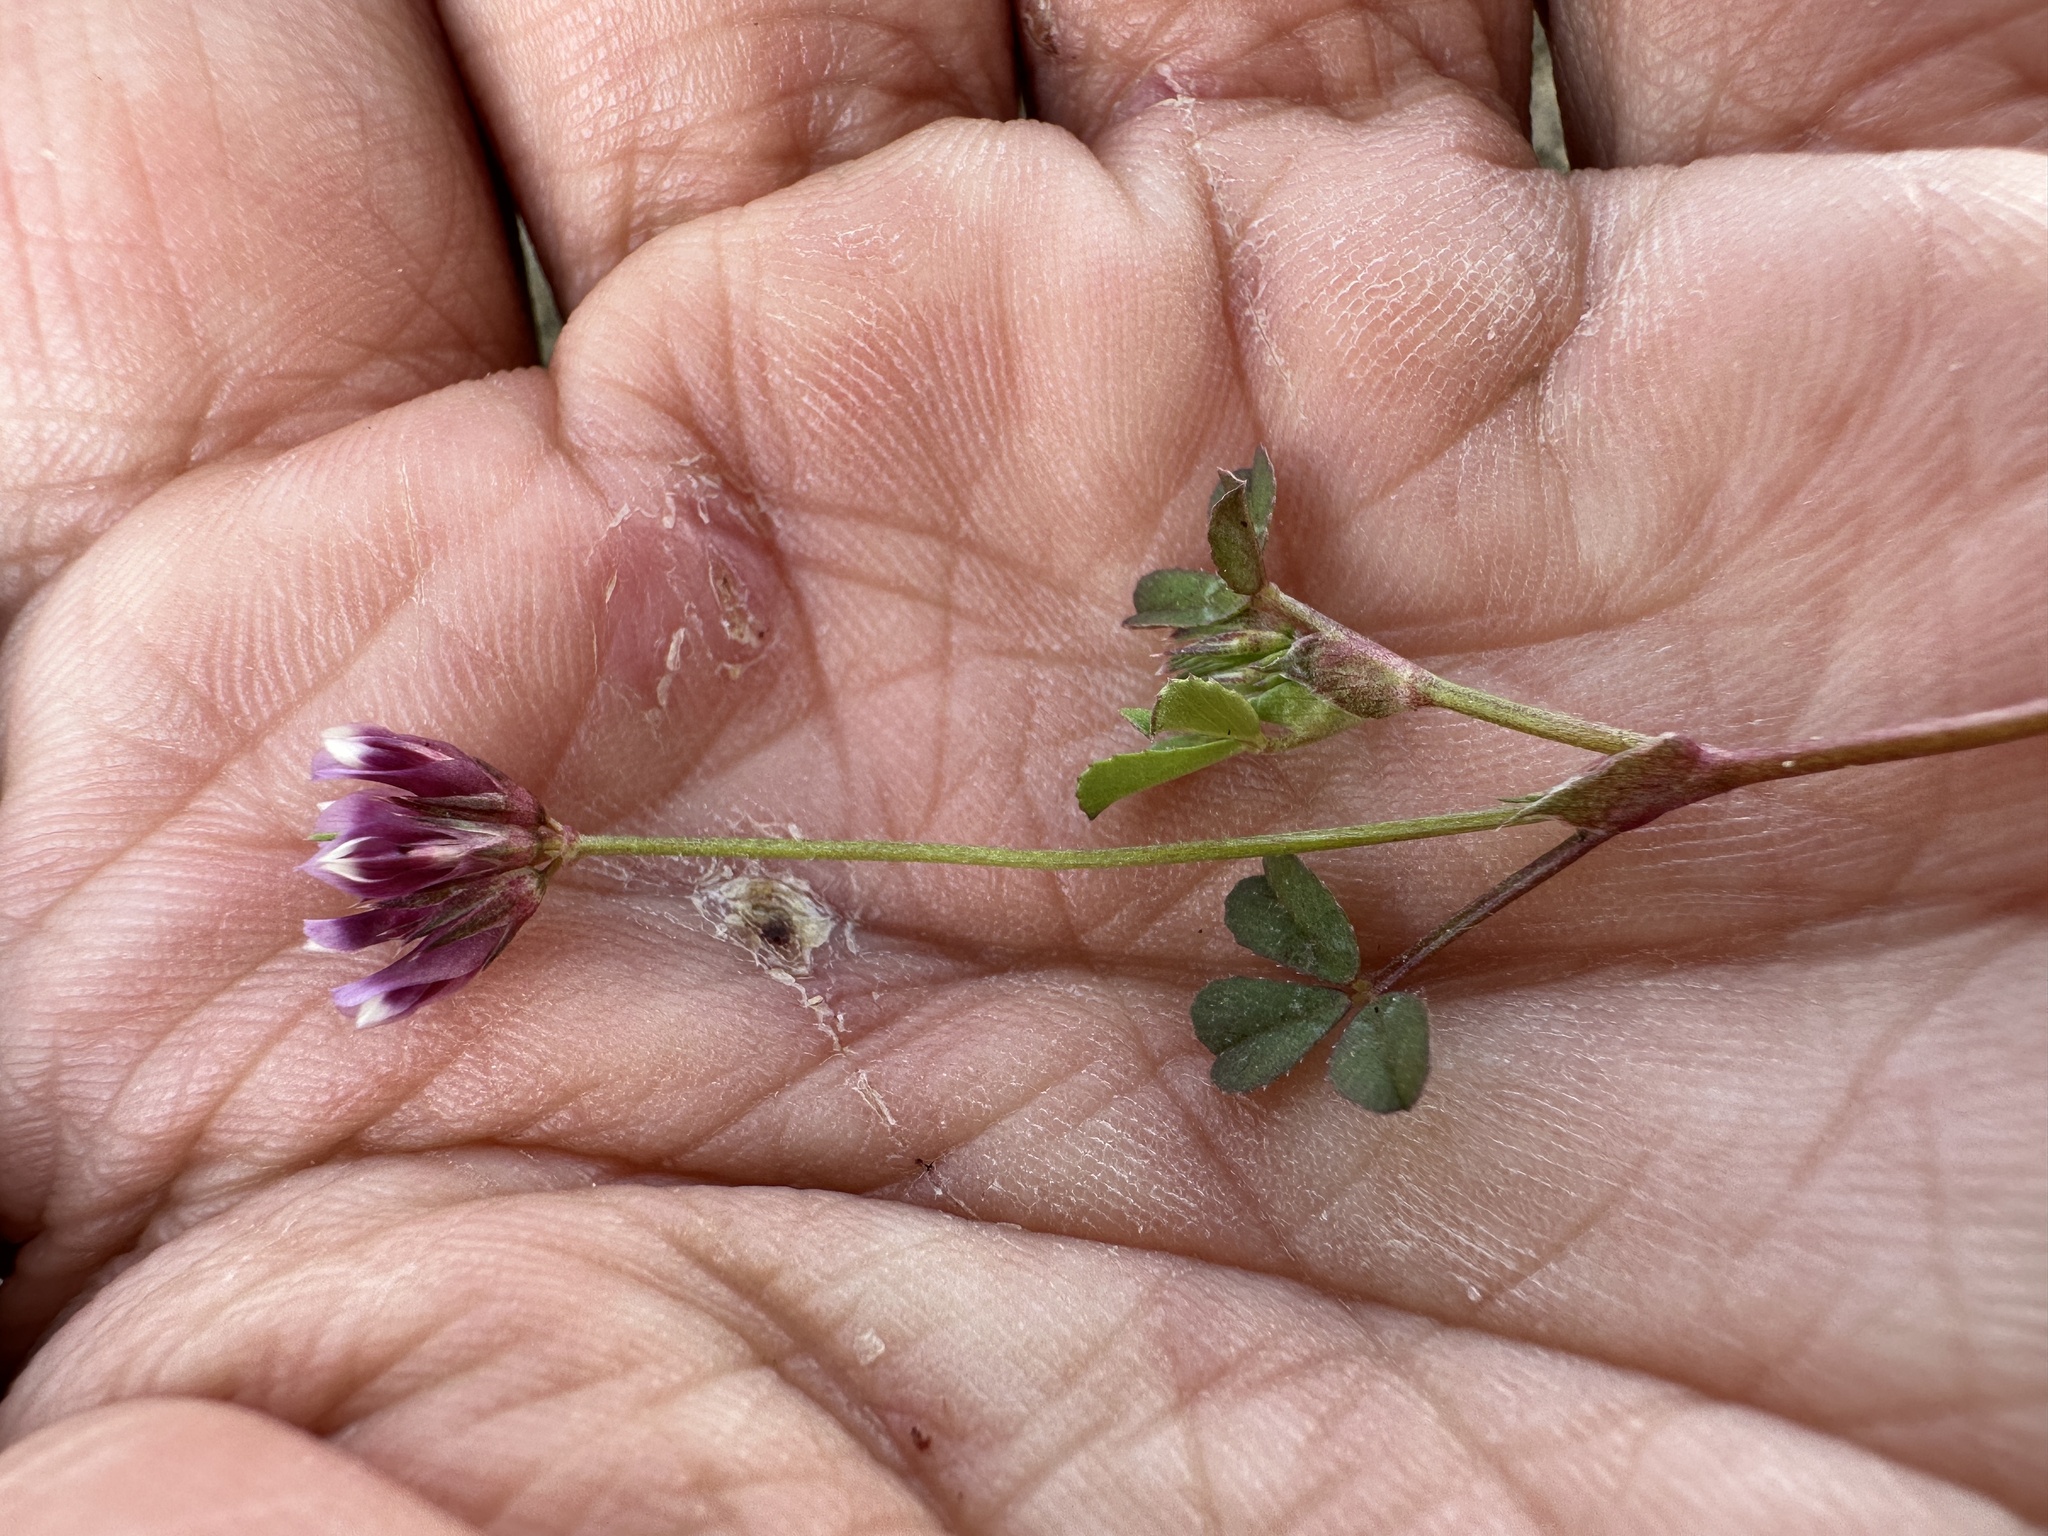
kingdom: Plantae
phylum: Tracheophyta
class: Magnoliopsida
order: Fabales
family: Fabaceae
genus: Trifolium
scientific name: Trifolium gracilentum
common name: Slender clover
